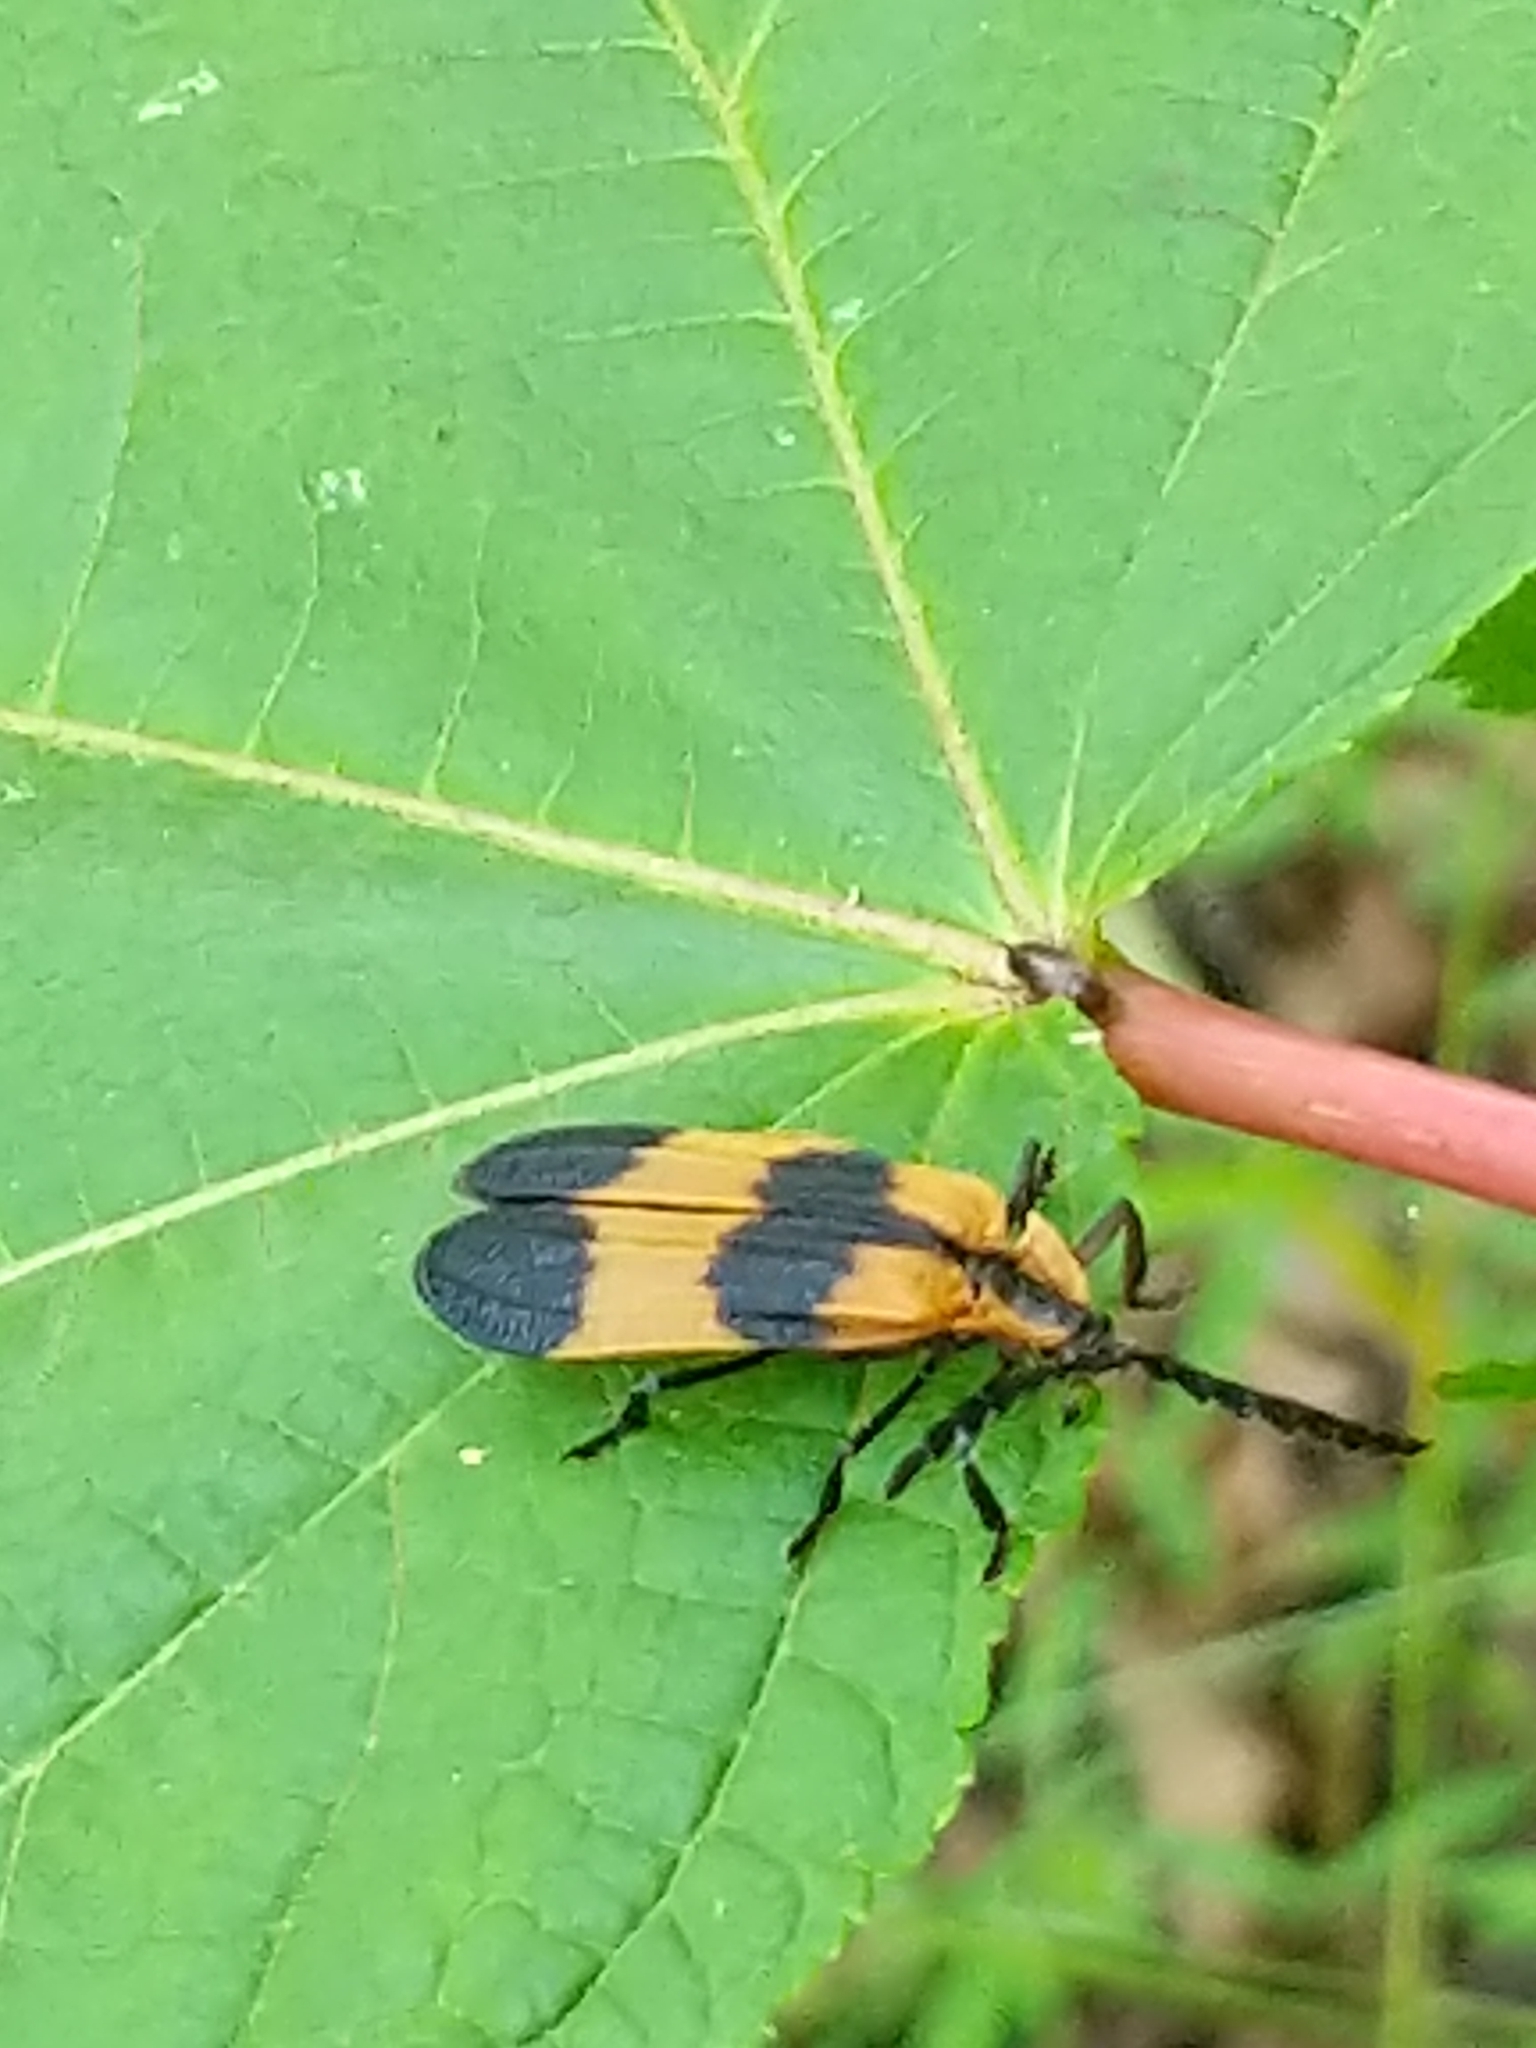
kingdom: Animalia
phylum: Arthropoda
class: Insecta
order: Coleoptera
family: Lycidae
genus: Calopteron
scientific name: Calopteron reticulatum
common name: Banded net-winged beetle
